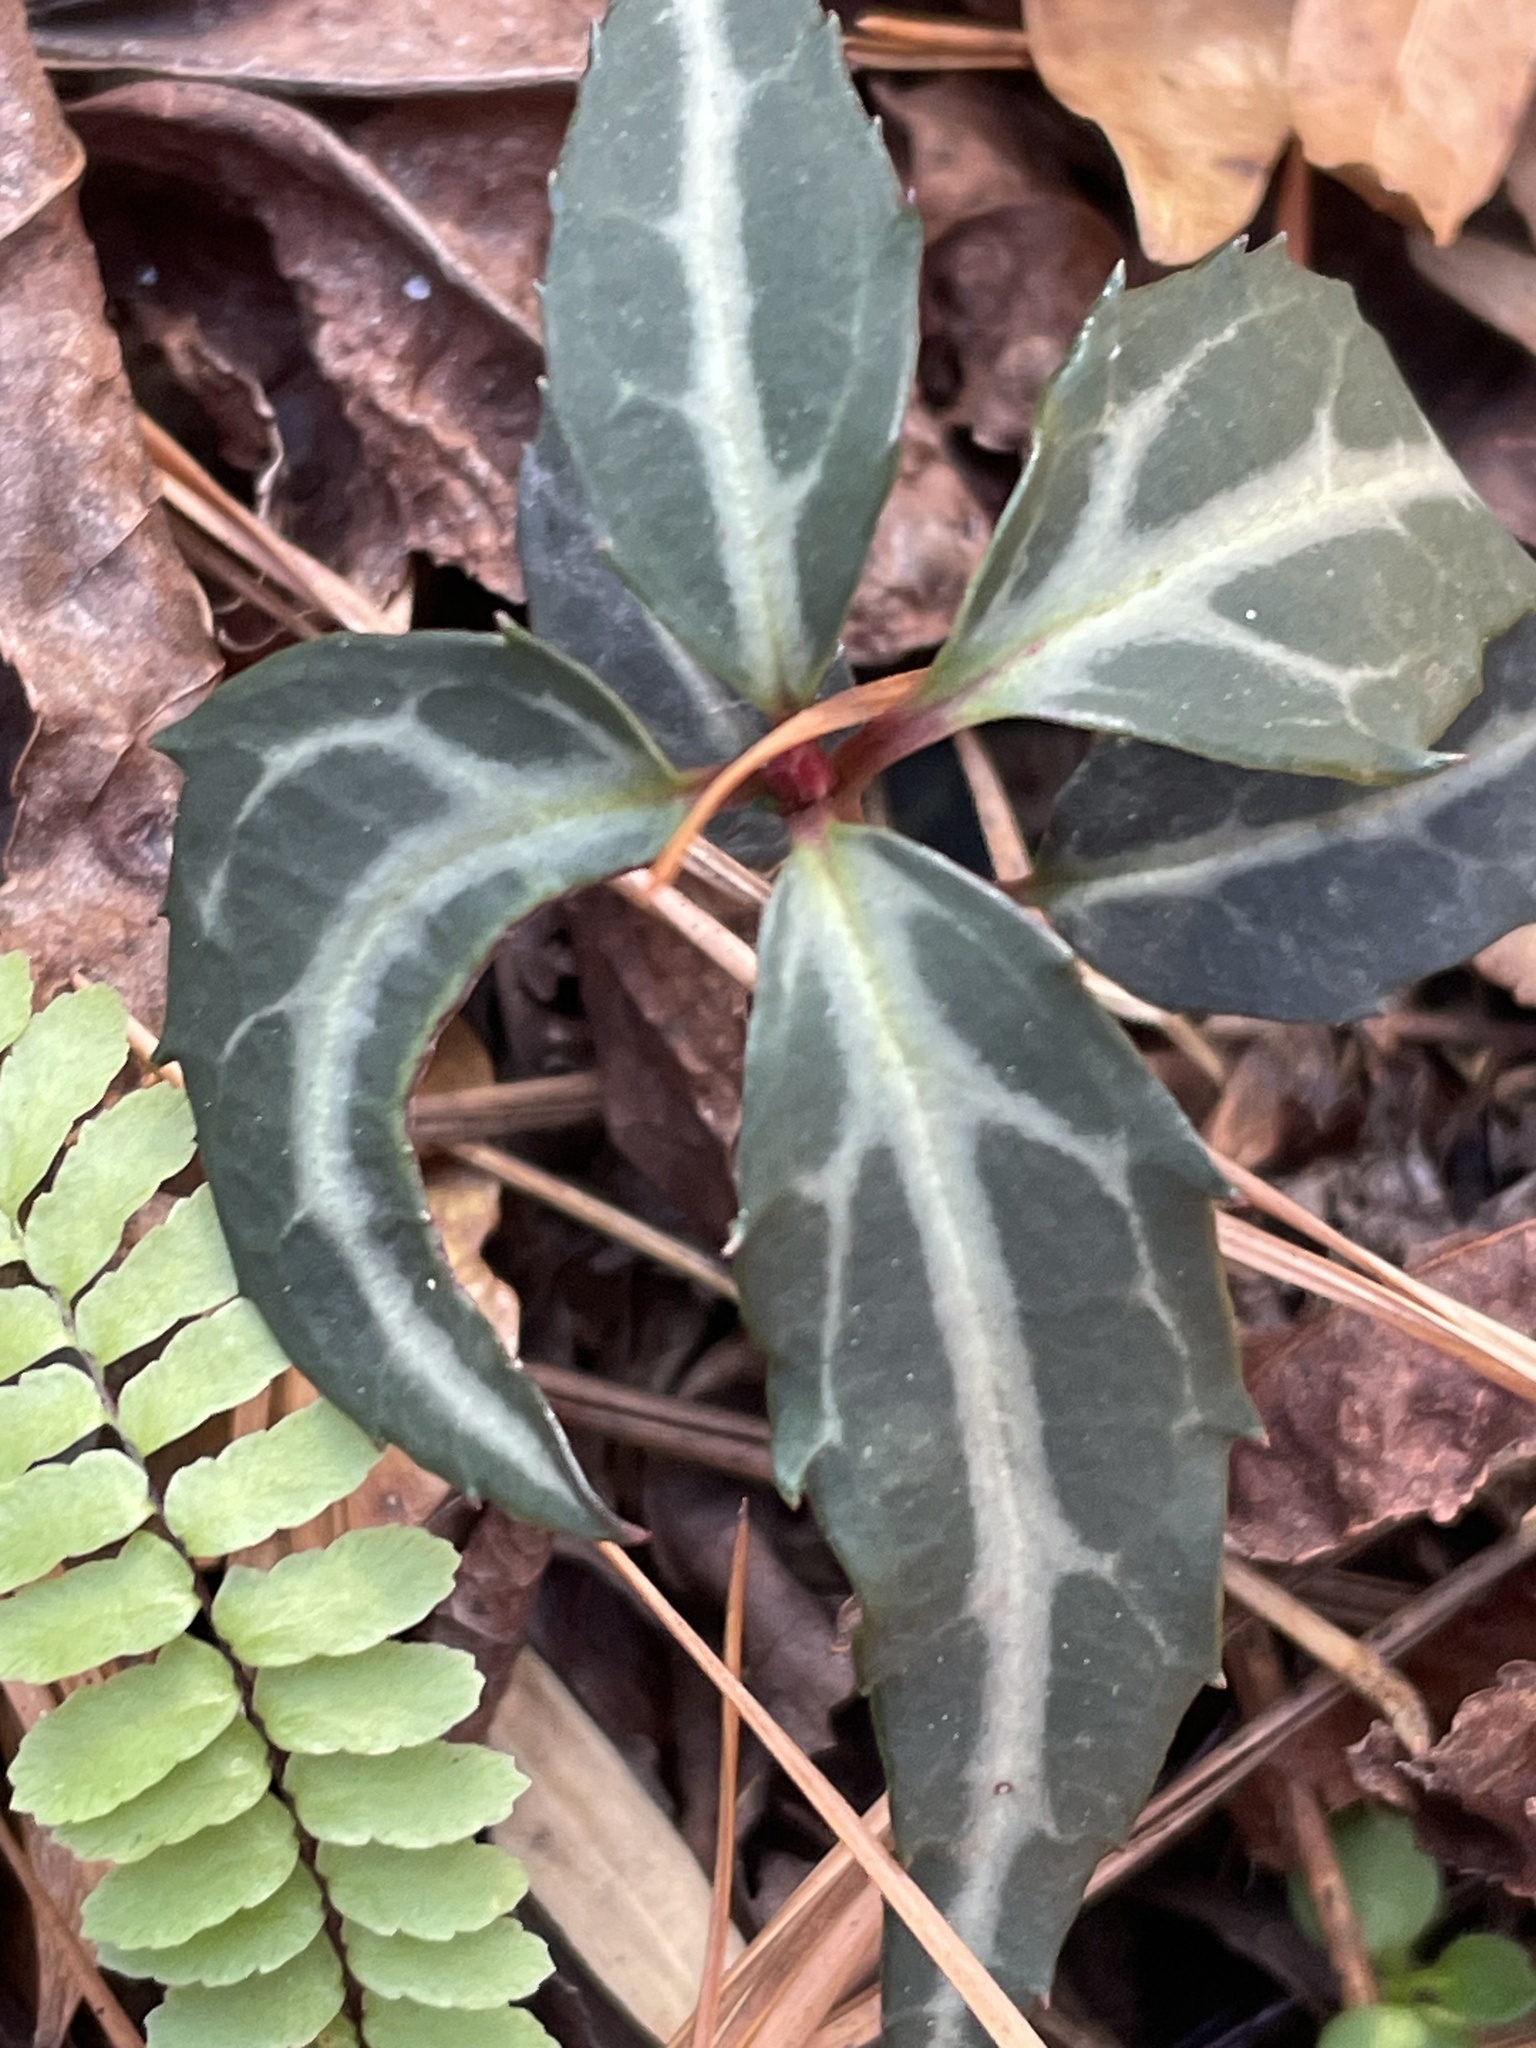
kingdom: Plantae
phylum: Tracheophyta
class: Magnoliopsida
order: Ericales
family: Ericaceae
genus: Chimaphila
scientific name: Chimaphila maculata
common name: Spotted pipsissewa
